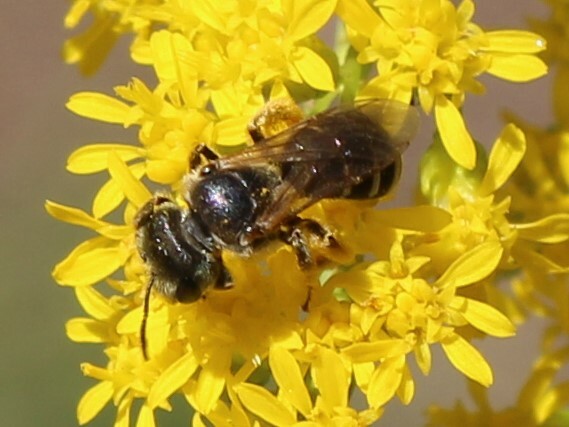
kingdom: Animalia
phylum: Arthropoda
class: Insecta
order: Hymenoptera
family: Halictidae
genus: Halictus
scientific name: Halictus ligatus
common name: Ligated furrow bee
